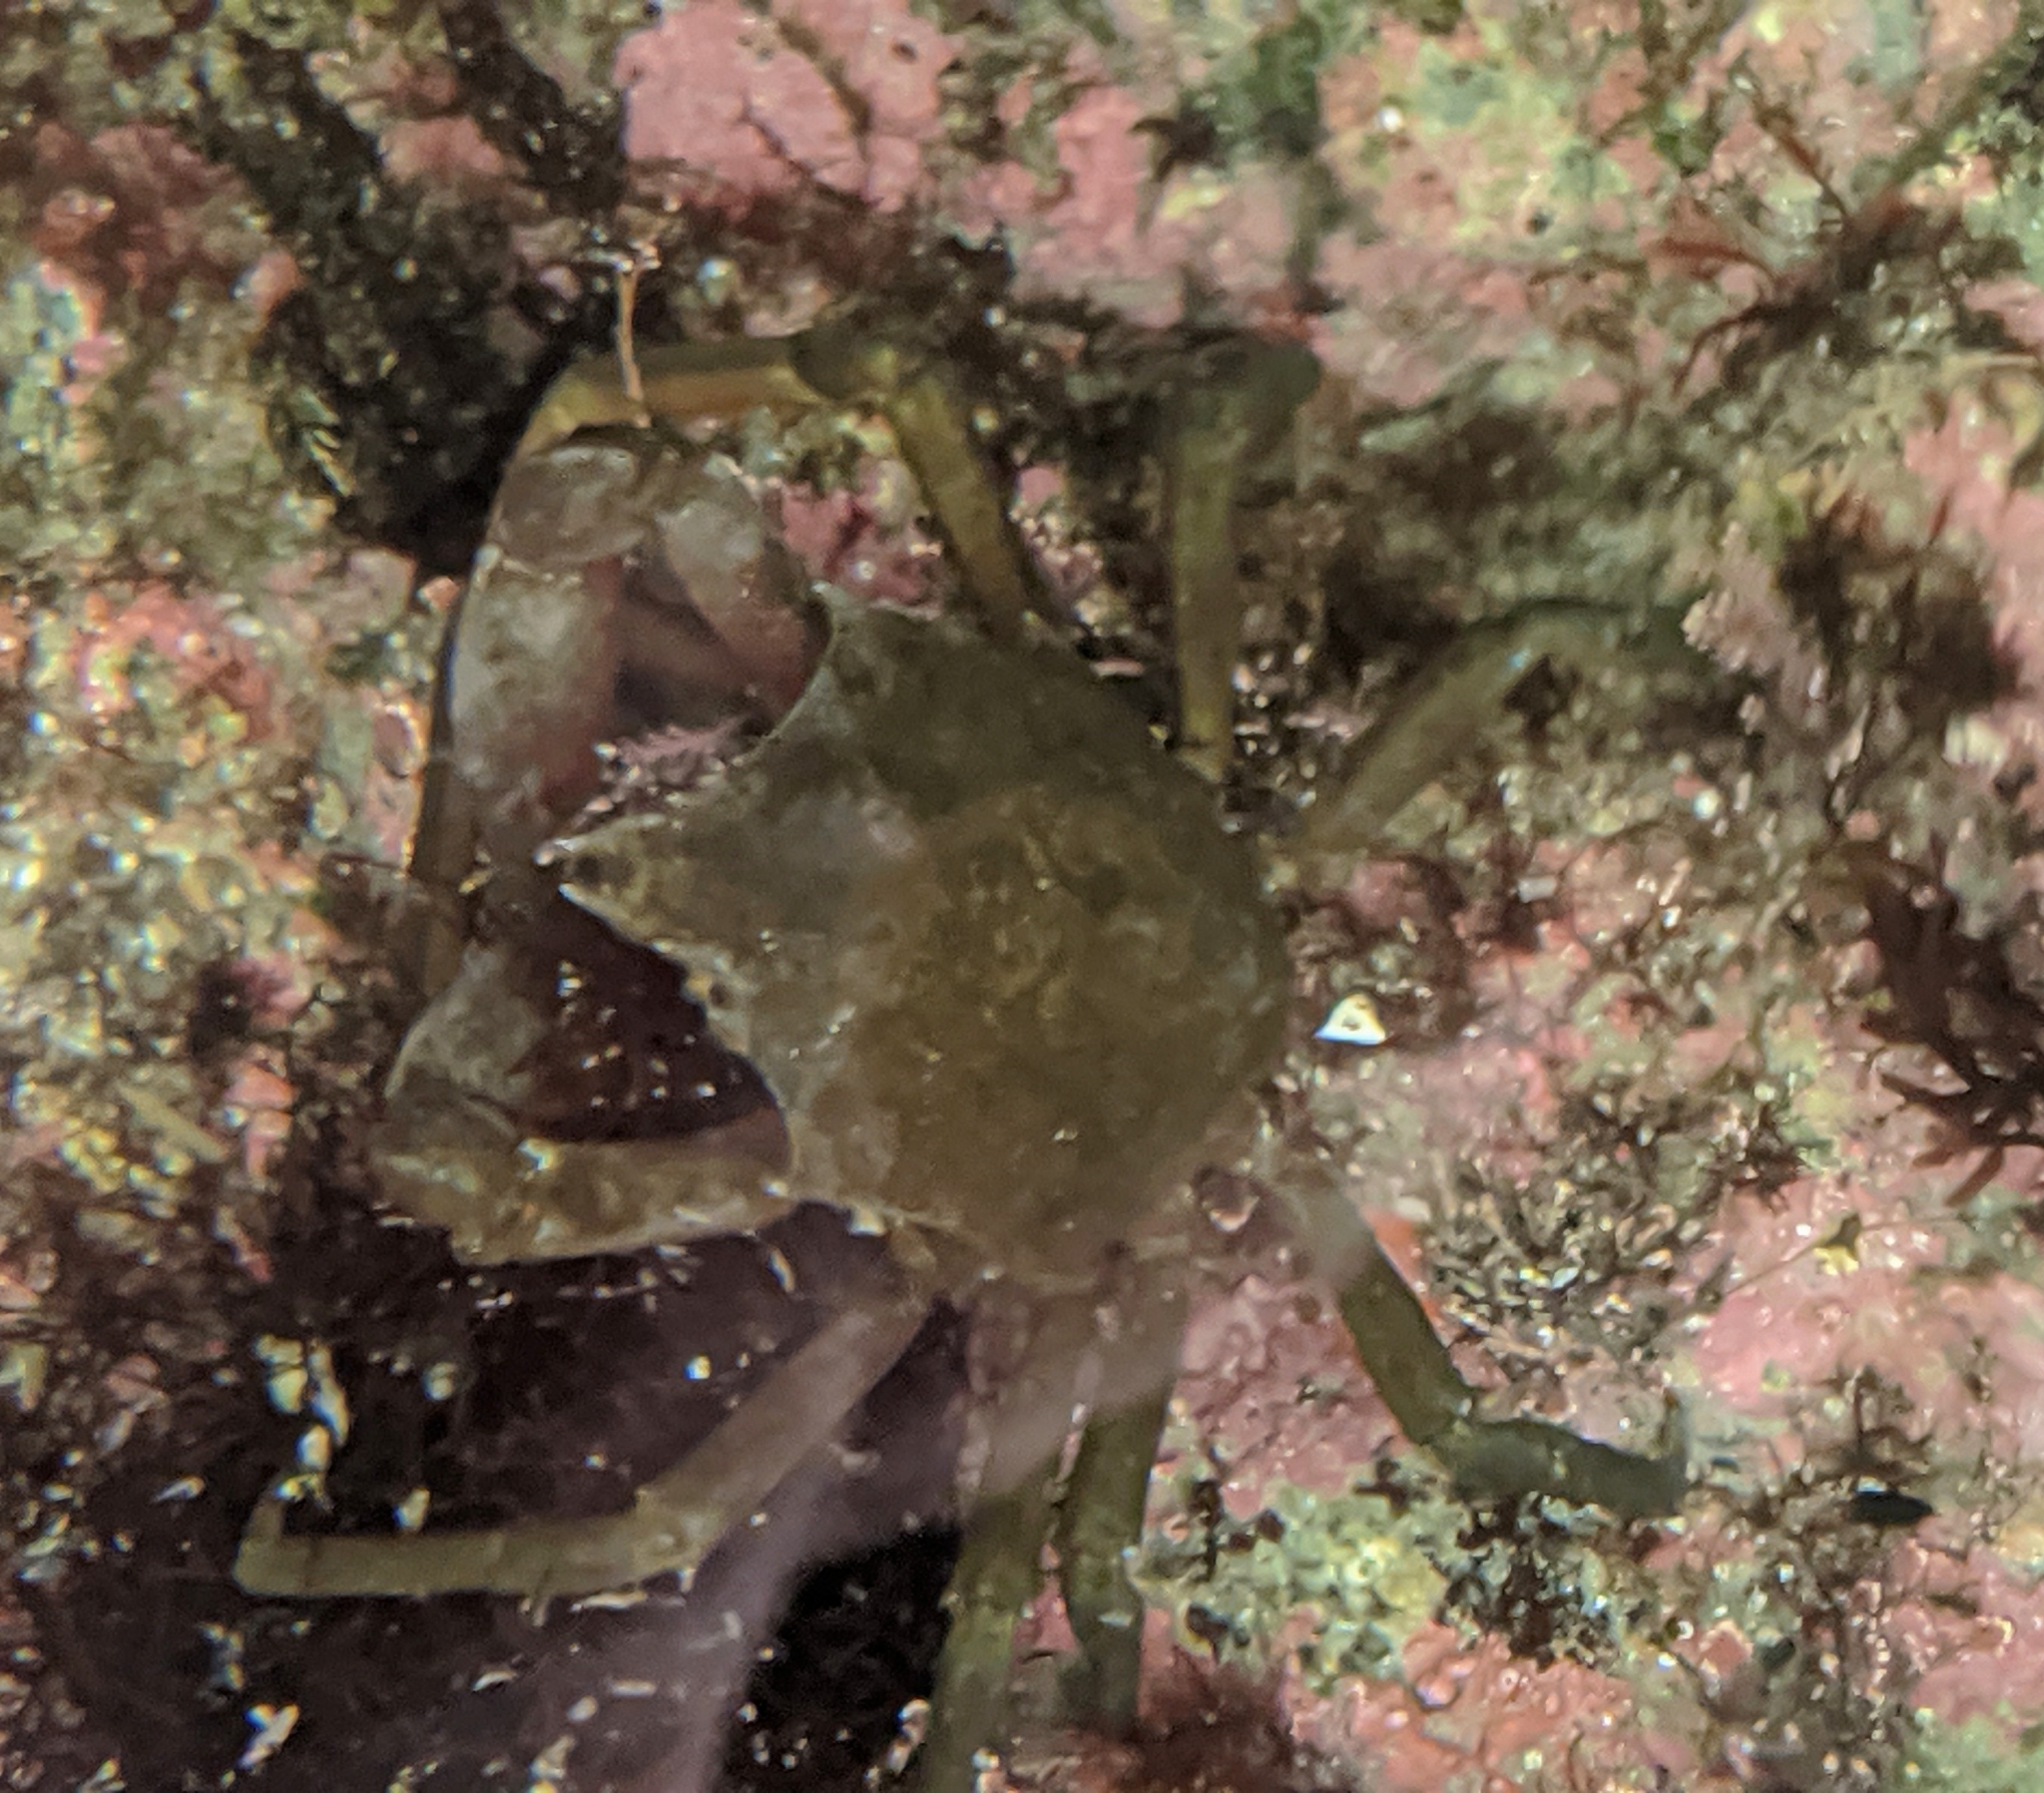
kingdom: Animalia
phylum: Arthropoda
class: Malacostraca
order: Decapoda
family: Epialtidae
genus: Pugettia
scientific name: Pugettia producta
